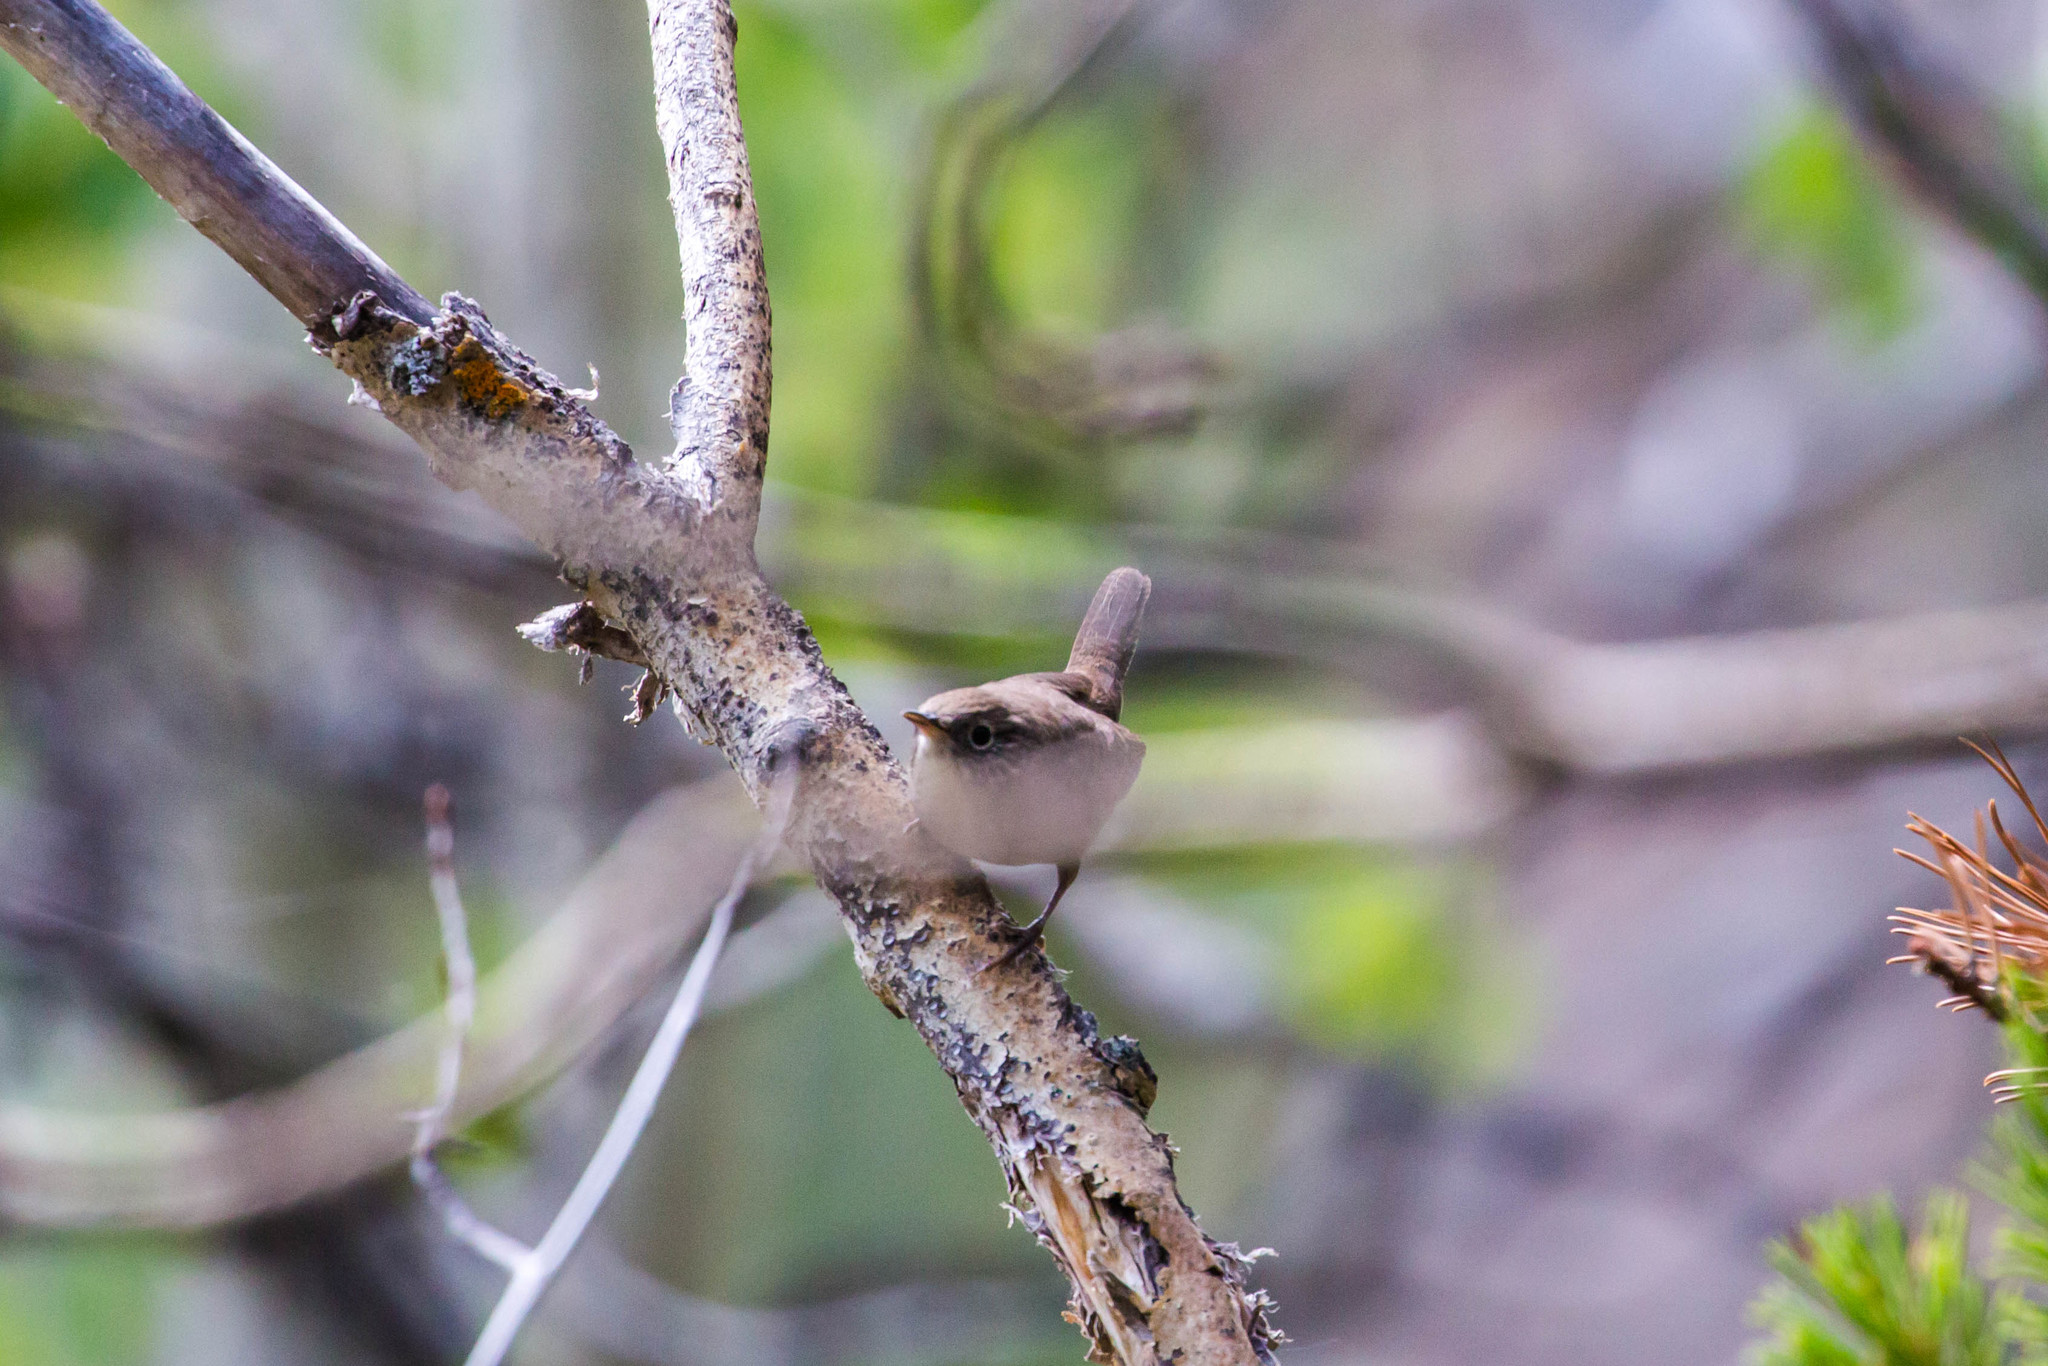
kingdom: Animalia
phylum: Chordata
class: Aves
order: Passeriformes
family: Troglodytidae
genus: Troglodytes
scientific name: Troglodytes aedon
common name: House wren
